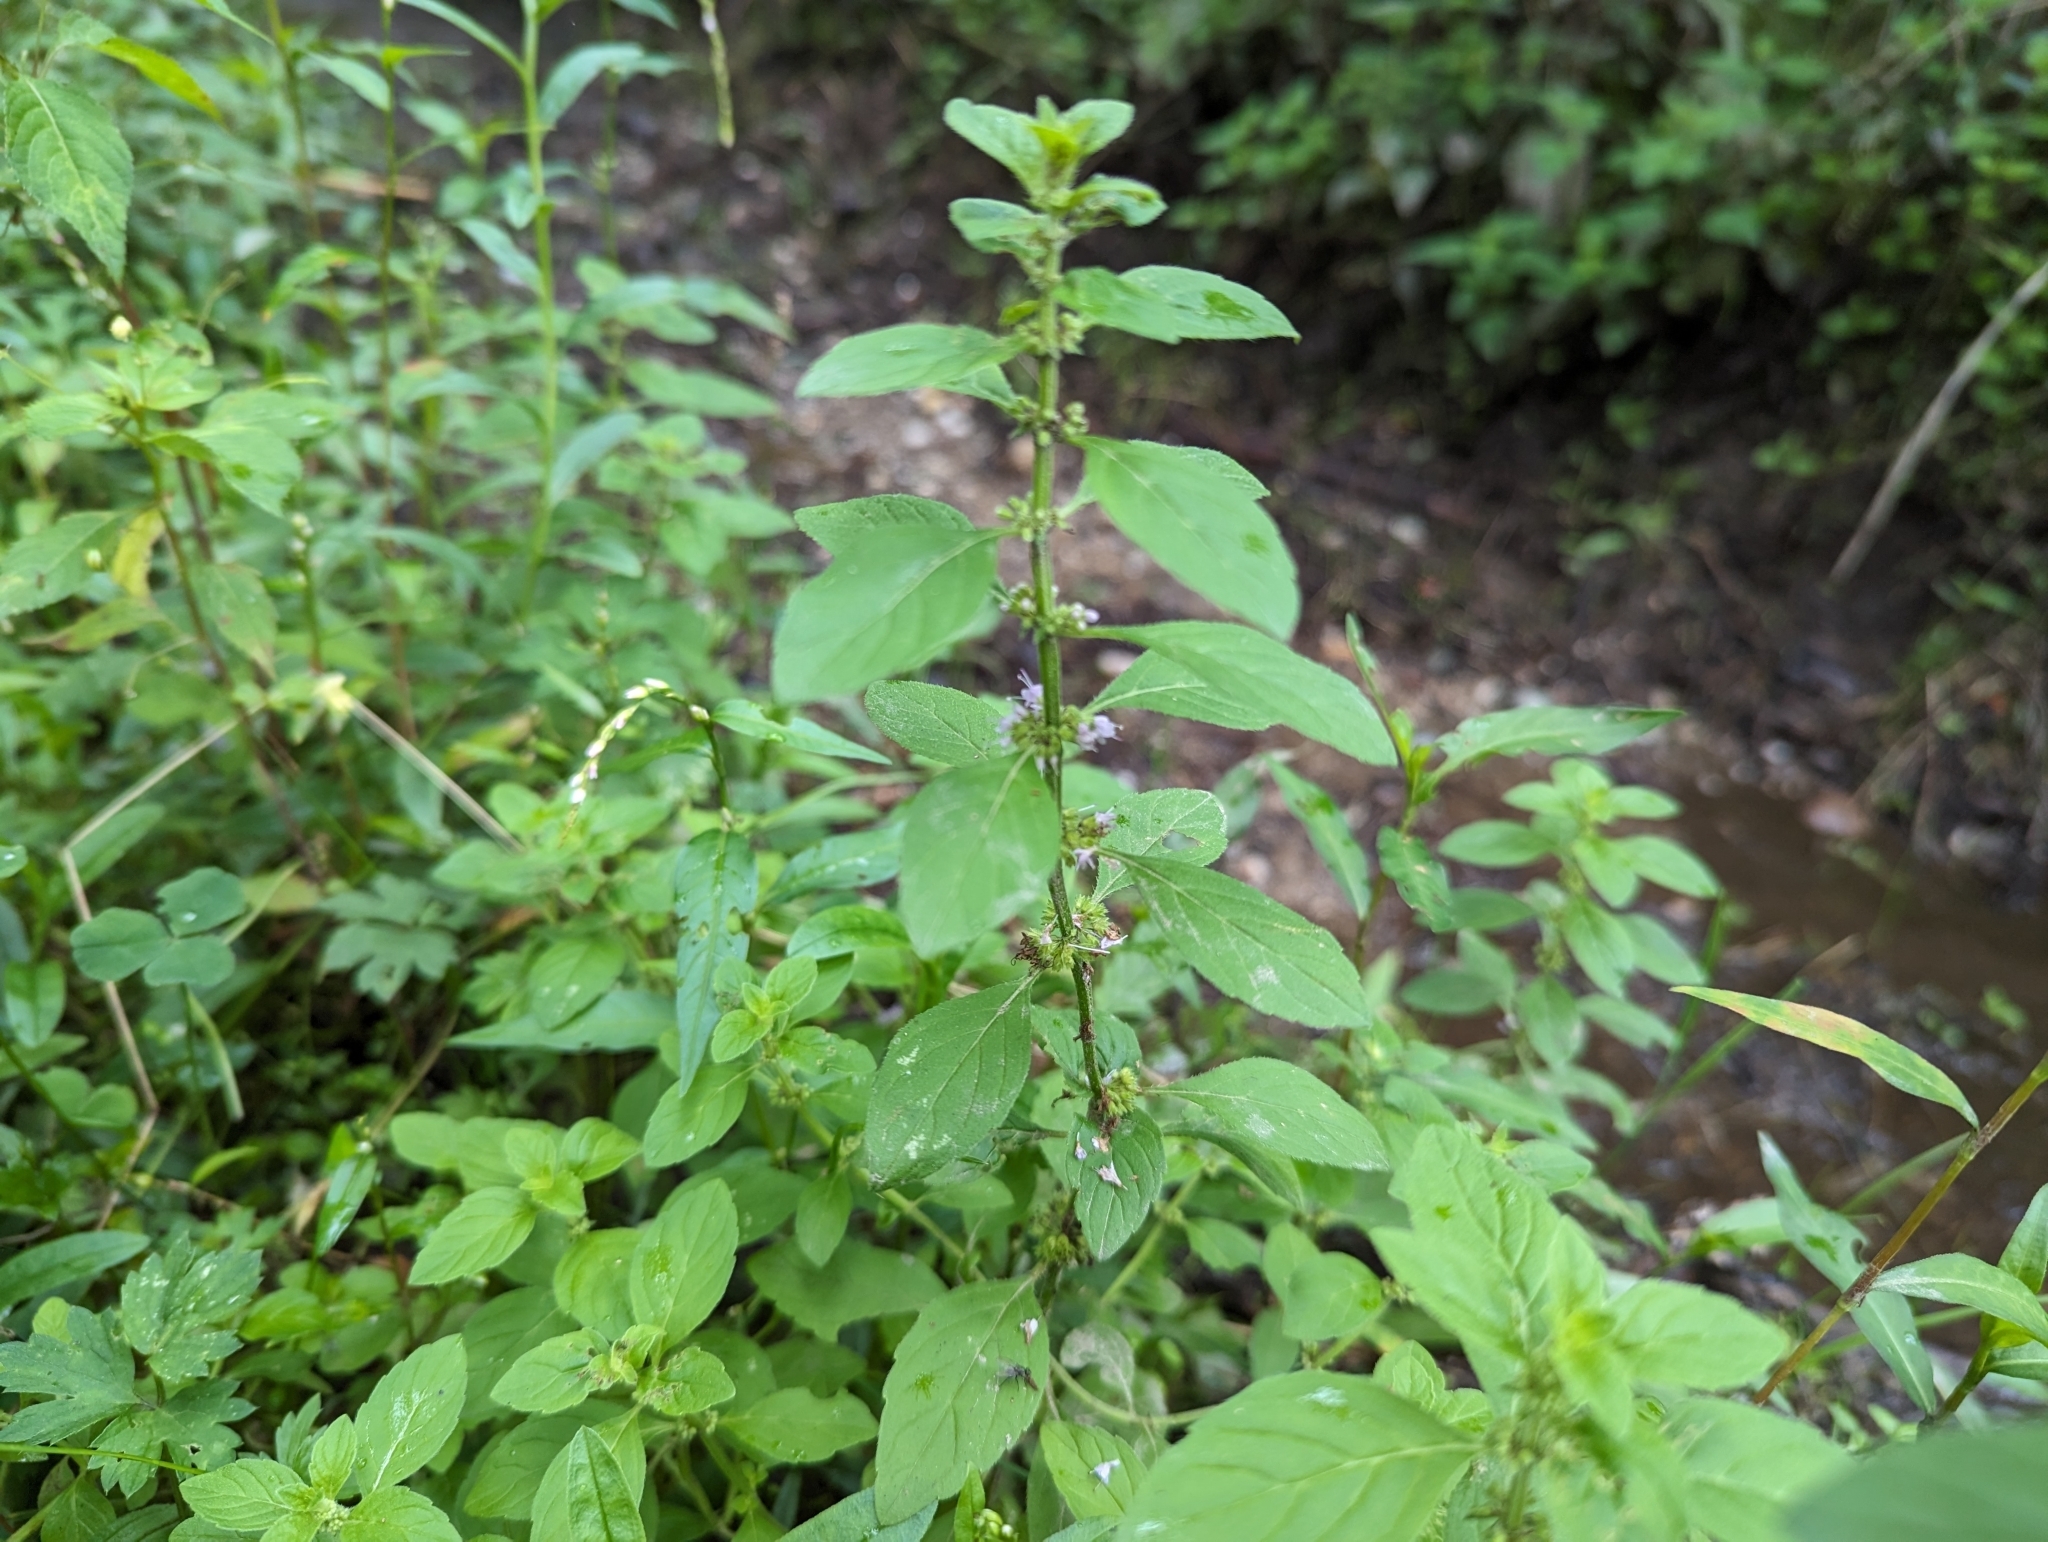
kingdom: Plantae
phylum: Tracheophyta
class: Magnoliopsida
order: Lamiales
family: Lamiaceae
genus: Mentha
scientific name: Mentha arvensis
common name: Corn mint
